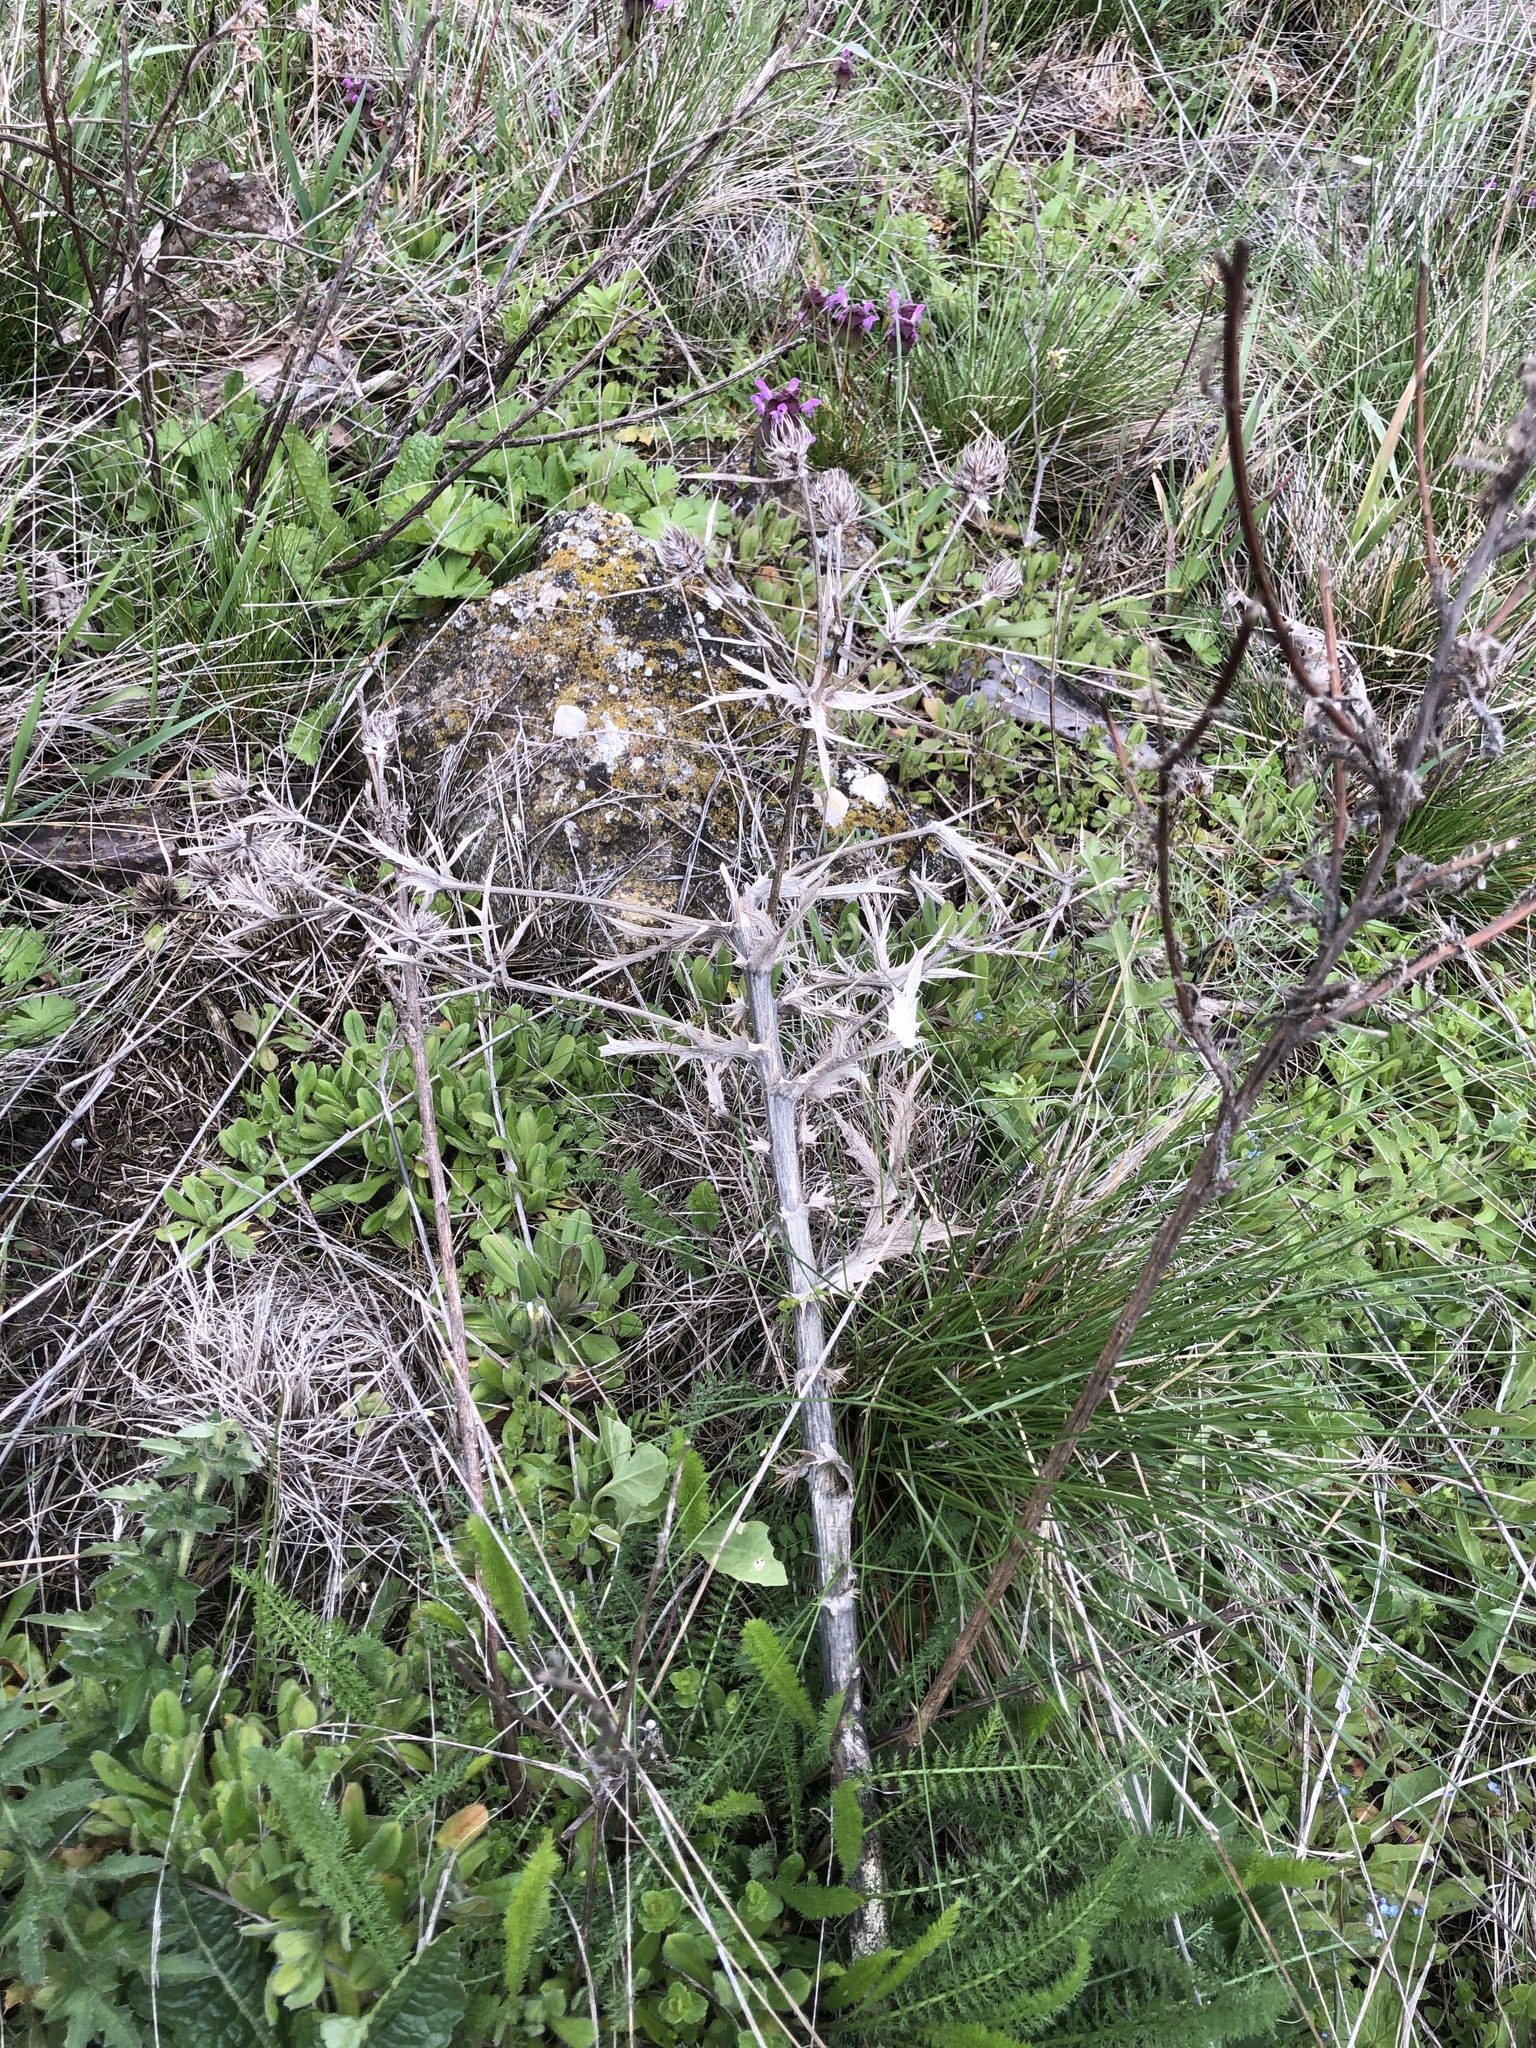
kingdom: Plantae
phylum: Tracheophyta
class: Magnoliopsida
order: Apiales
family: Apiaceae
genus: Eryngium
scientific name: Eryngium campestre
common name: Field eryngo
